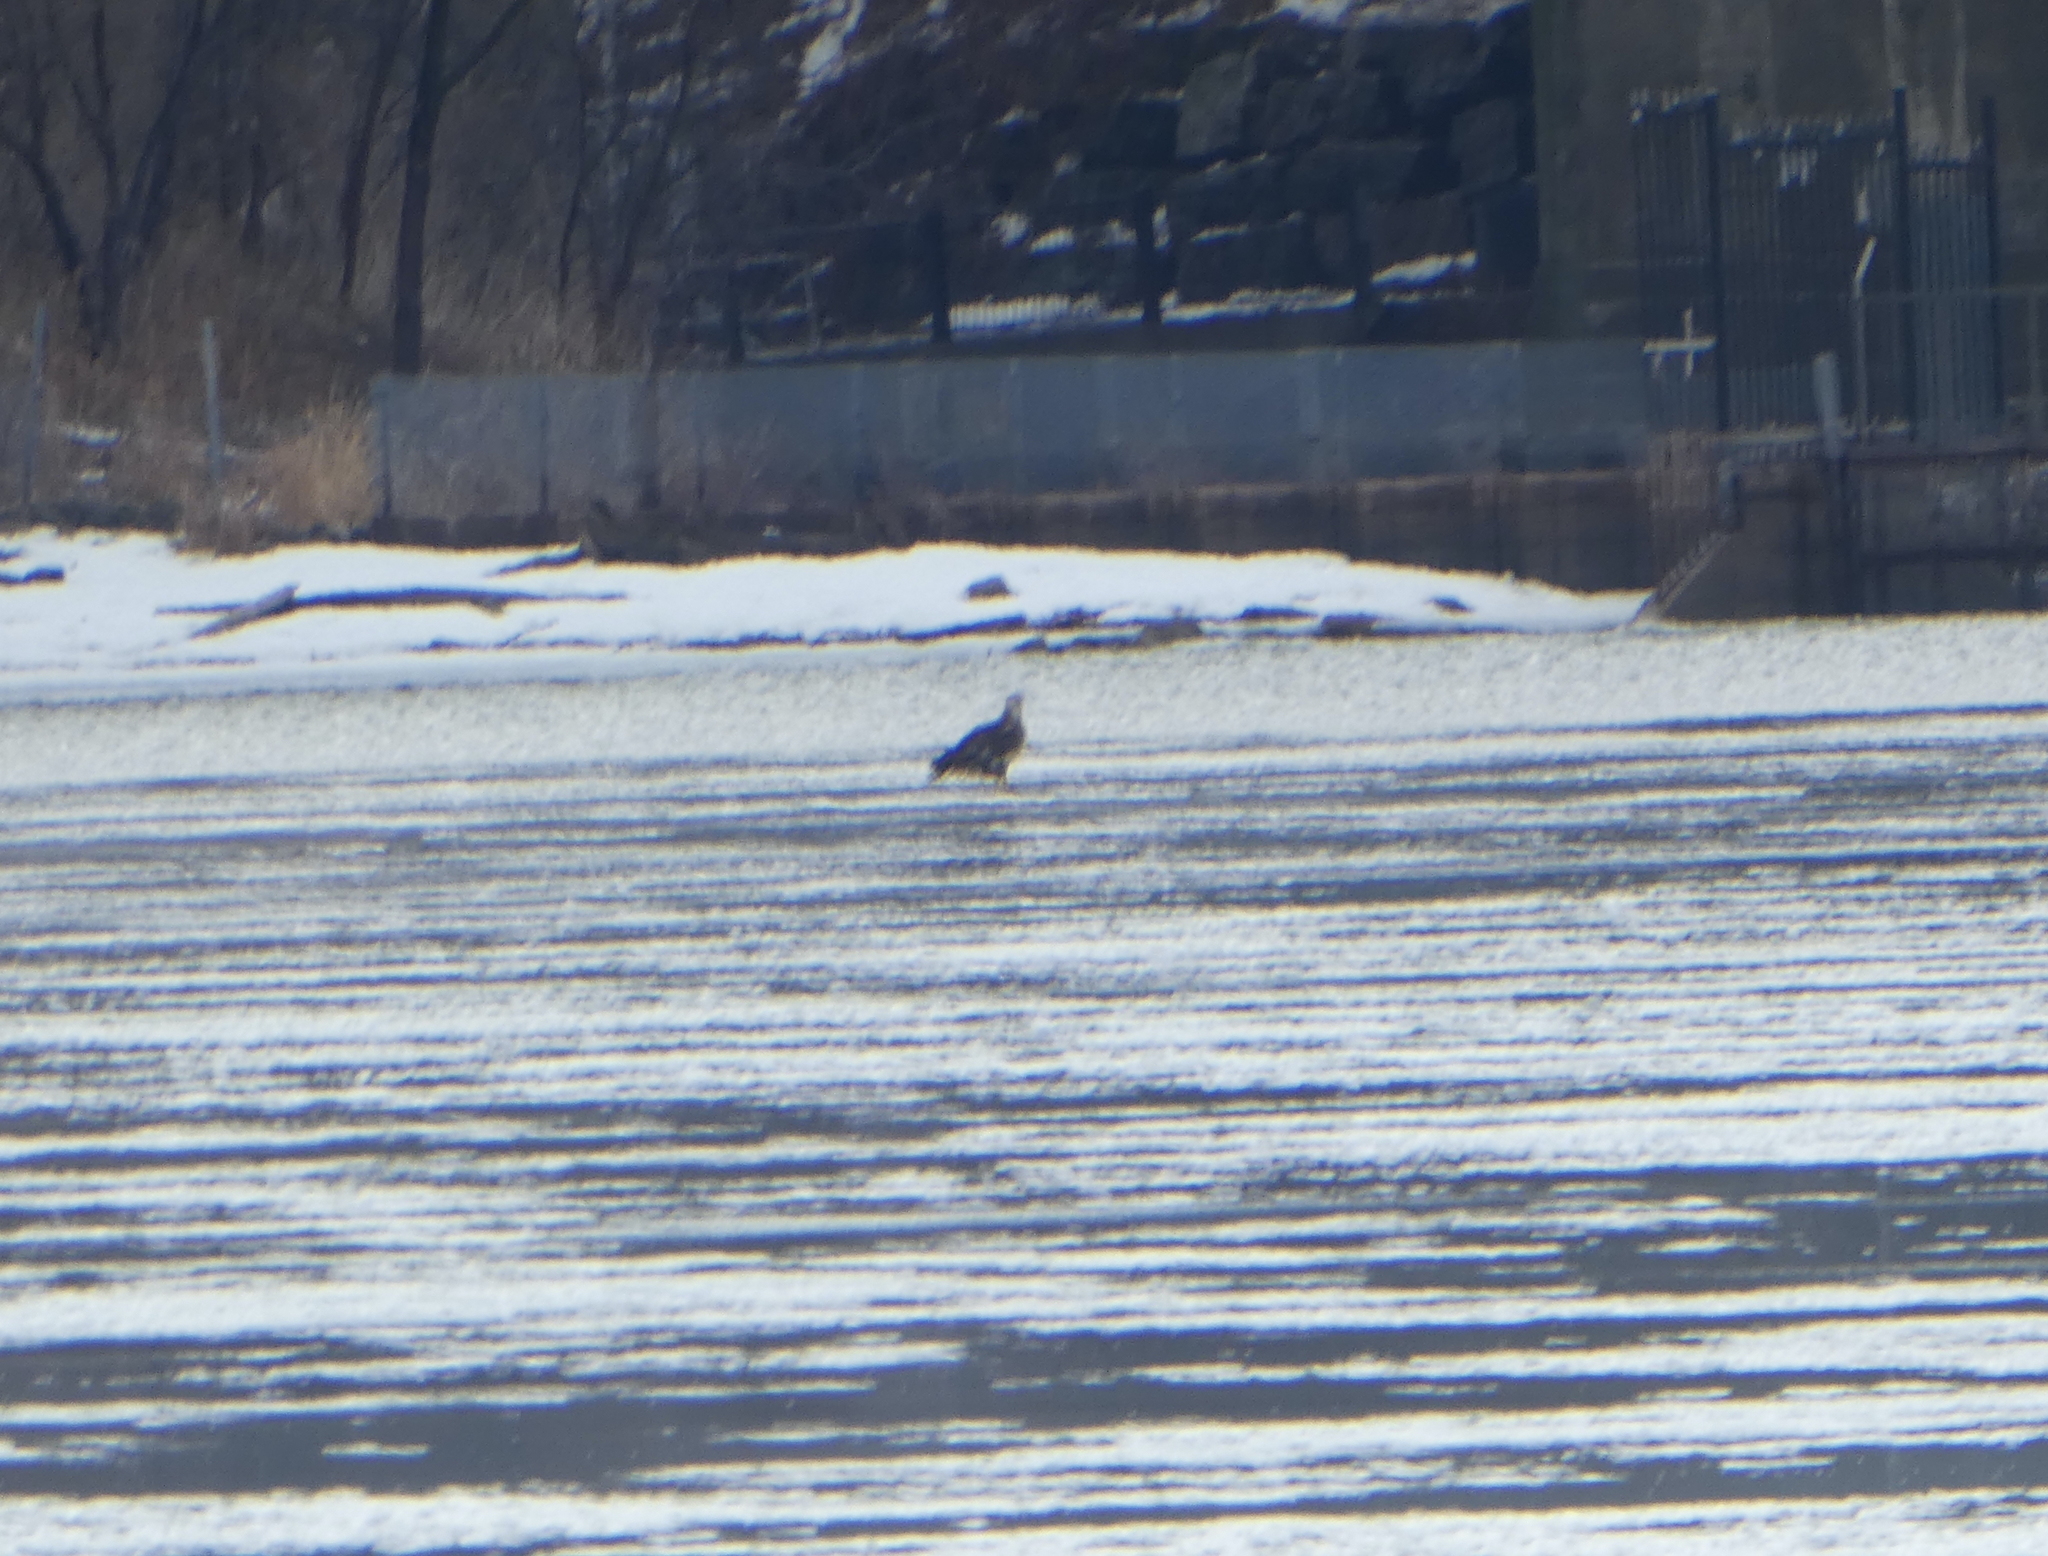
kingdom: Animalia
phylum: Chordata
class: Aves
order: Accipitriformes
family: Accipitridae
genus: Haliaeetus
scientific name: Haliaeetus leucocephalus
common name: Bald eagle
